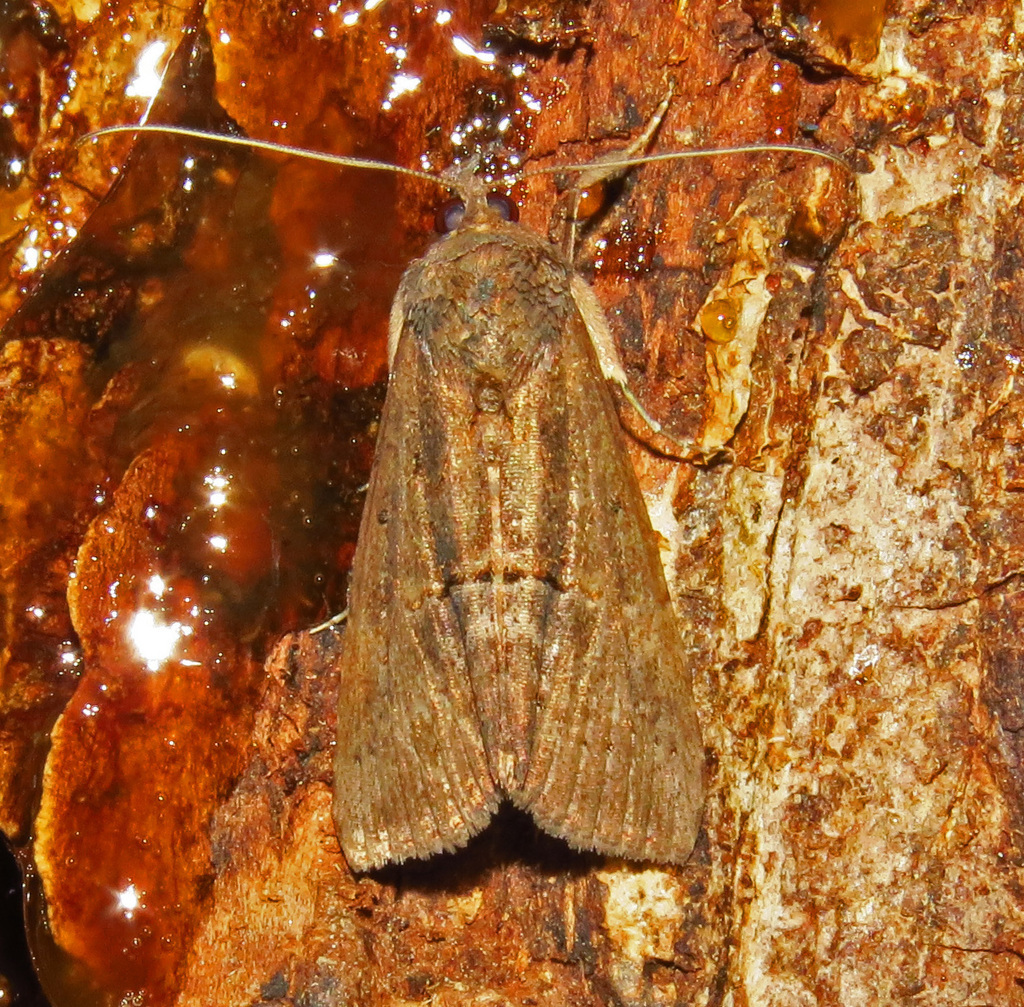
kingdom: Animalia
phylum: Arthropoda
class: Insecta
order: Lepidoptera
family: Erebidae
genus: Hypena
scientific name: Hypena scabra
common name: Green cloverworm
